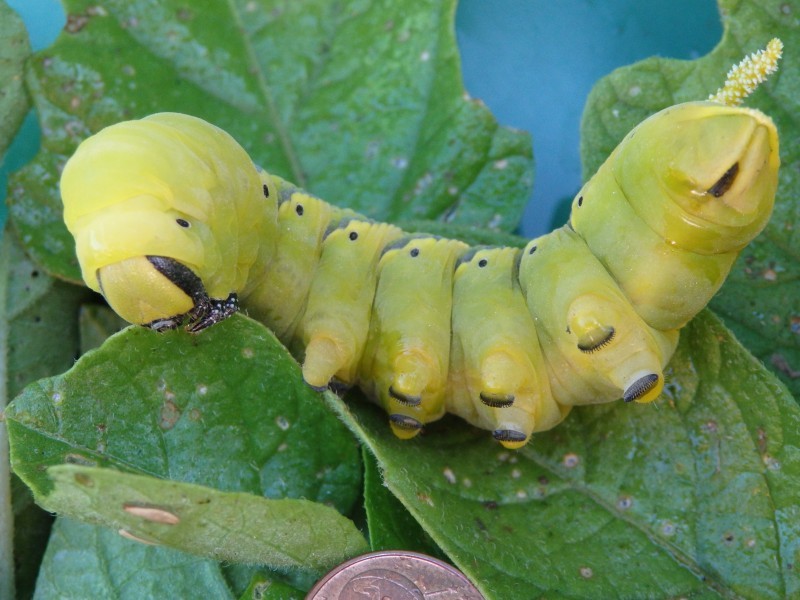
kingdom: Animalia
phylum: Arthropoda
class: Insecta
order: Lepidoptera
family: Sphingidae
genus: Acherontia
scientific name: Acherontia atropos
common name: Death's-head hawk moth
